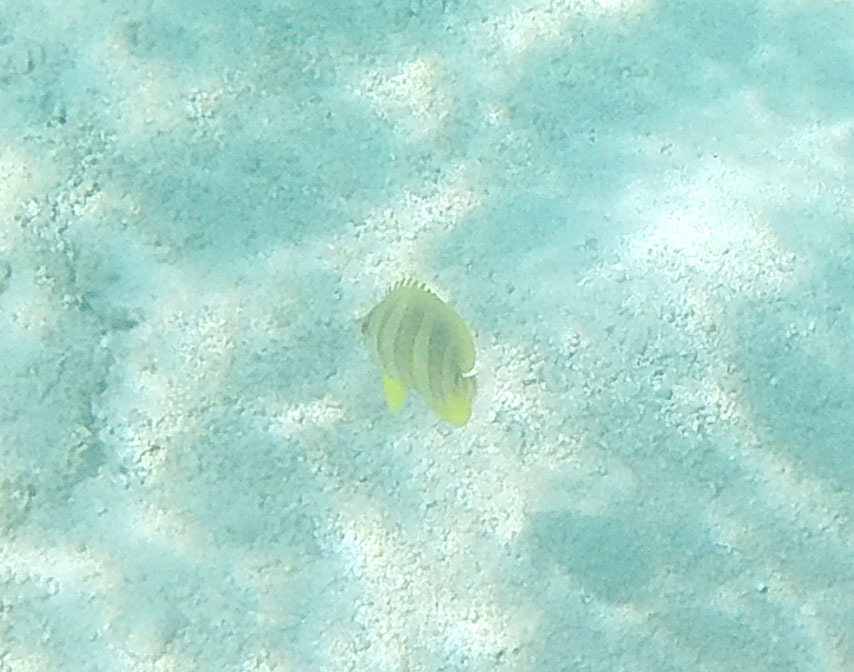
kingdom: Animalia
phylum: Chordata
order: Perciformes
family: Chaetodontidae
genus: Chaetodon
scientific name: Chaetodon rainfordi
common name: Rainford's butterflyfish
